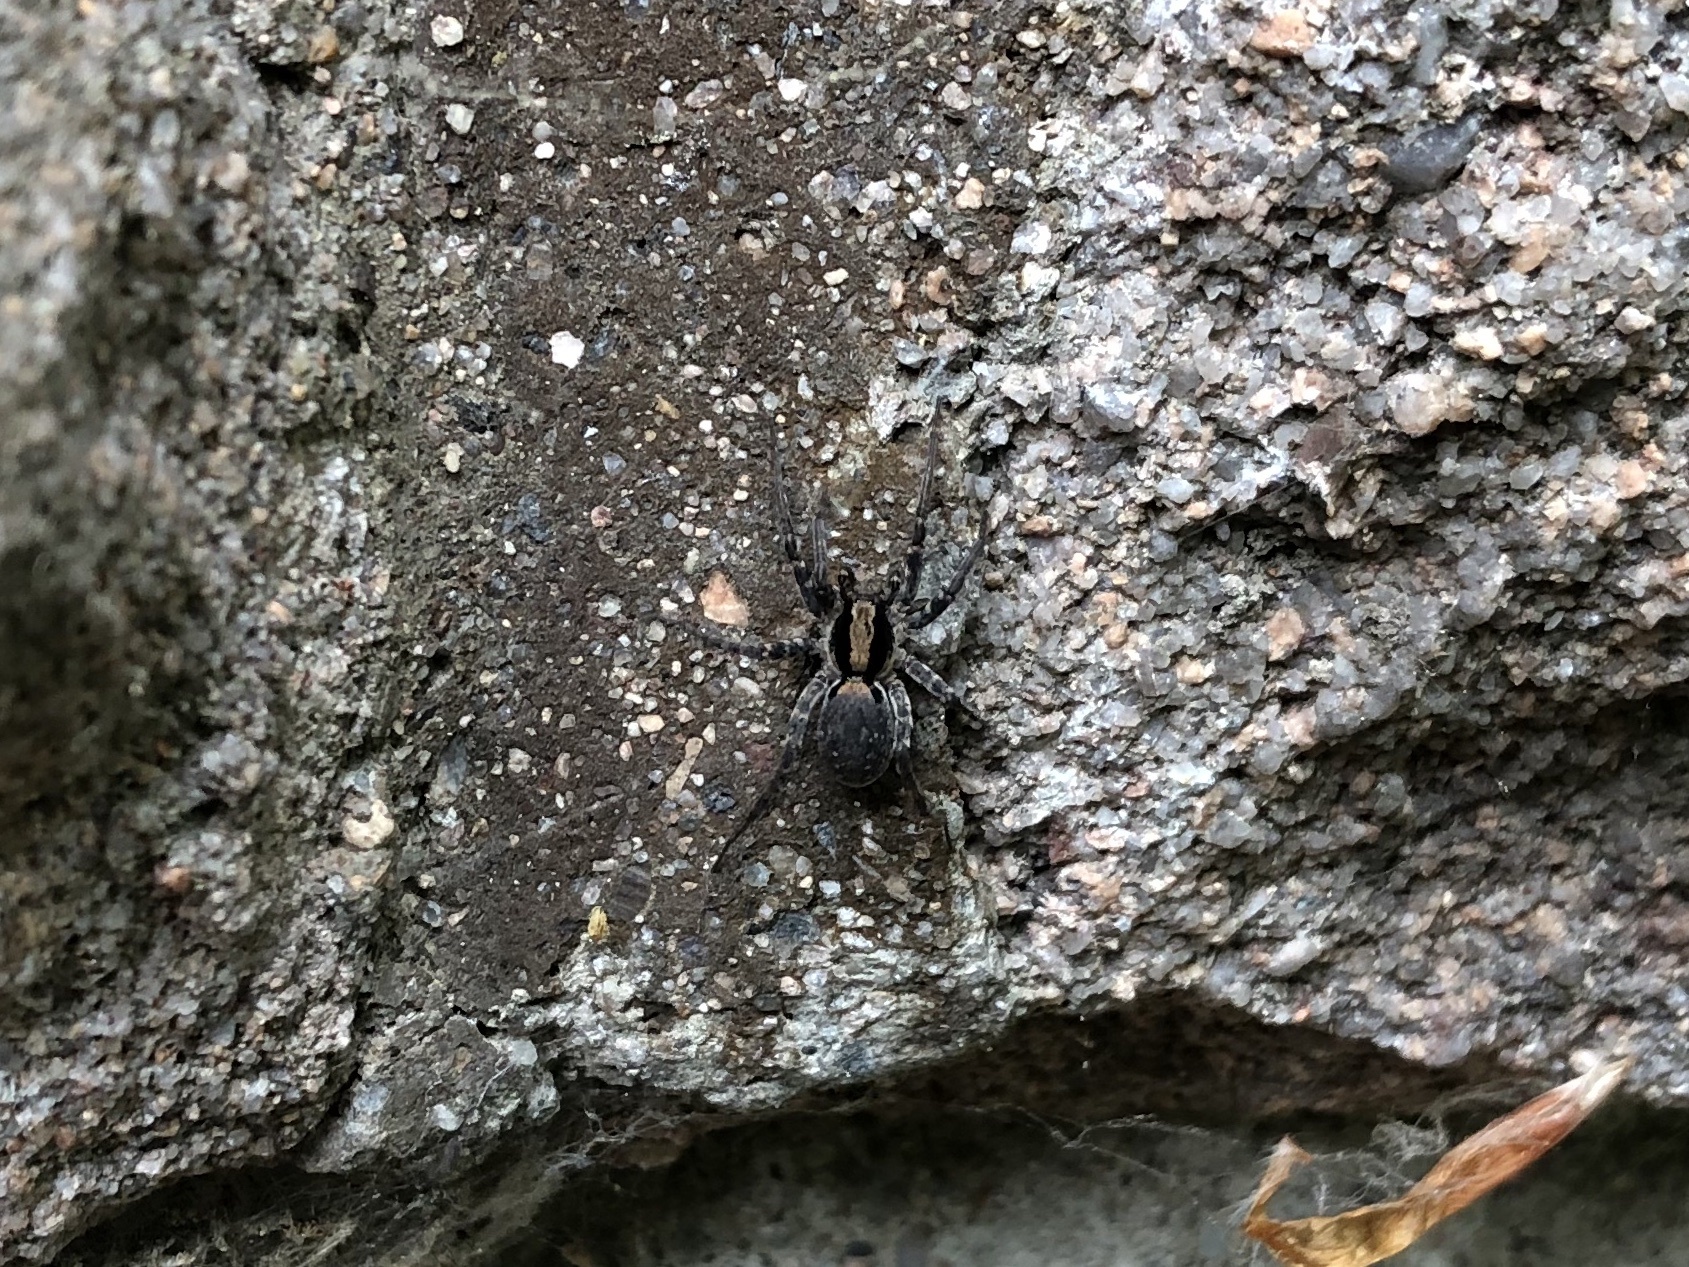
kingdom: Animalia
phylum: Arthropoda
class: Arachnida
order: Araneae
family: Lycosidae
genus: Xerolycosa
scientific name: Xerolycosa nemoralis
